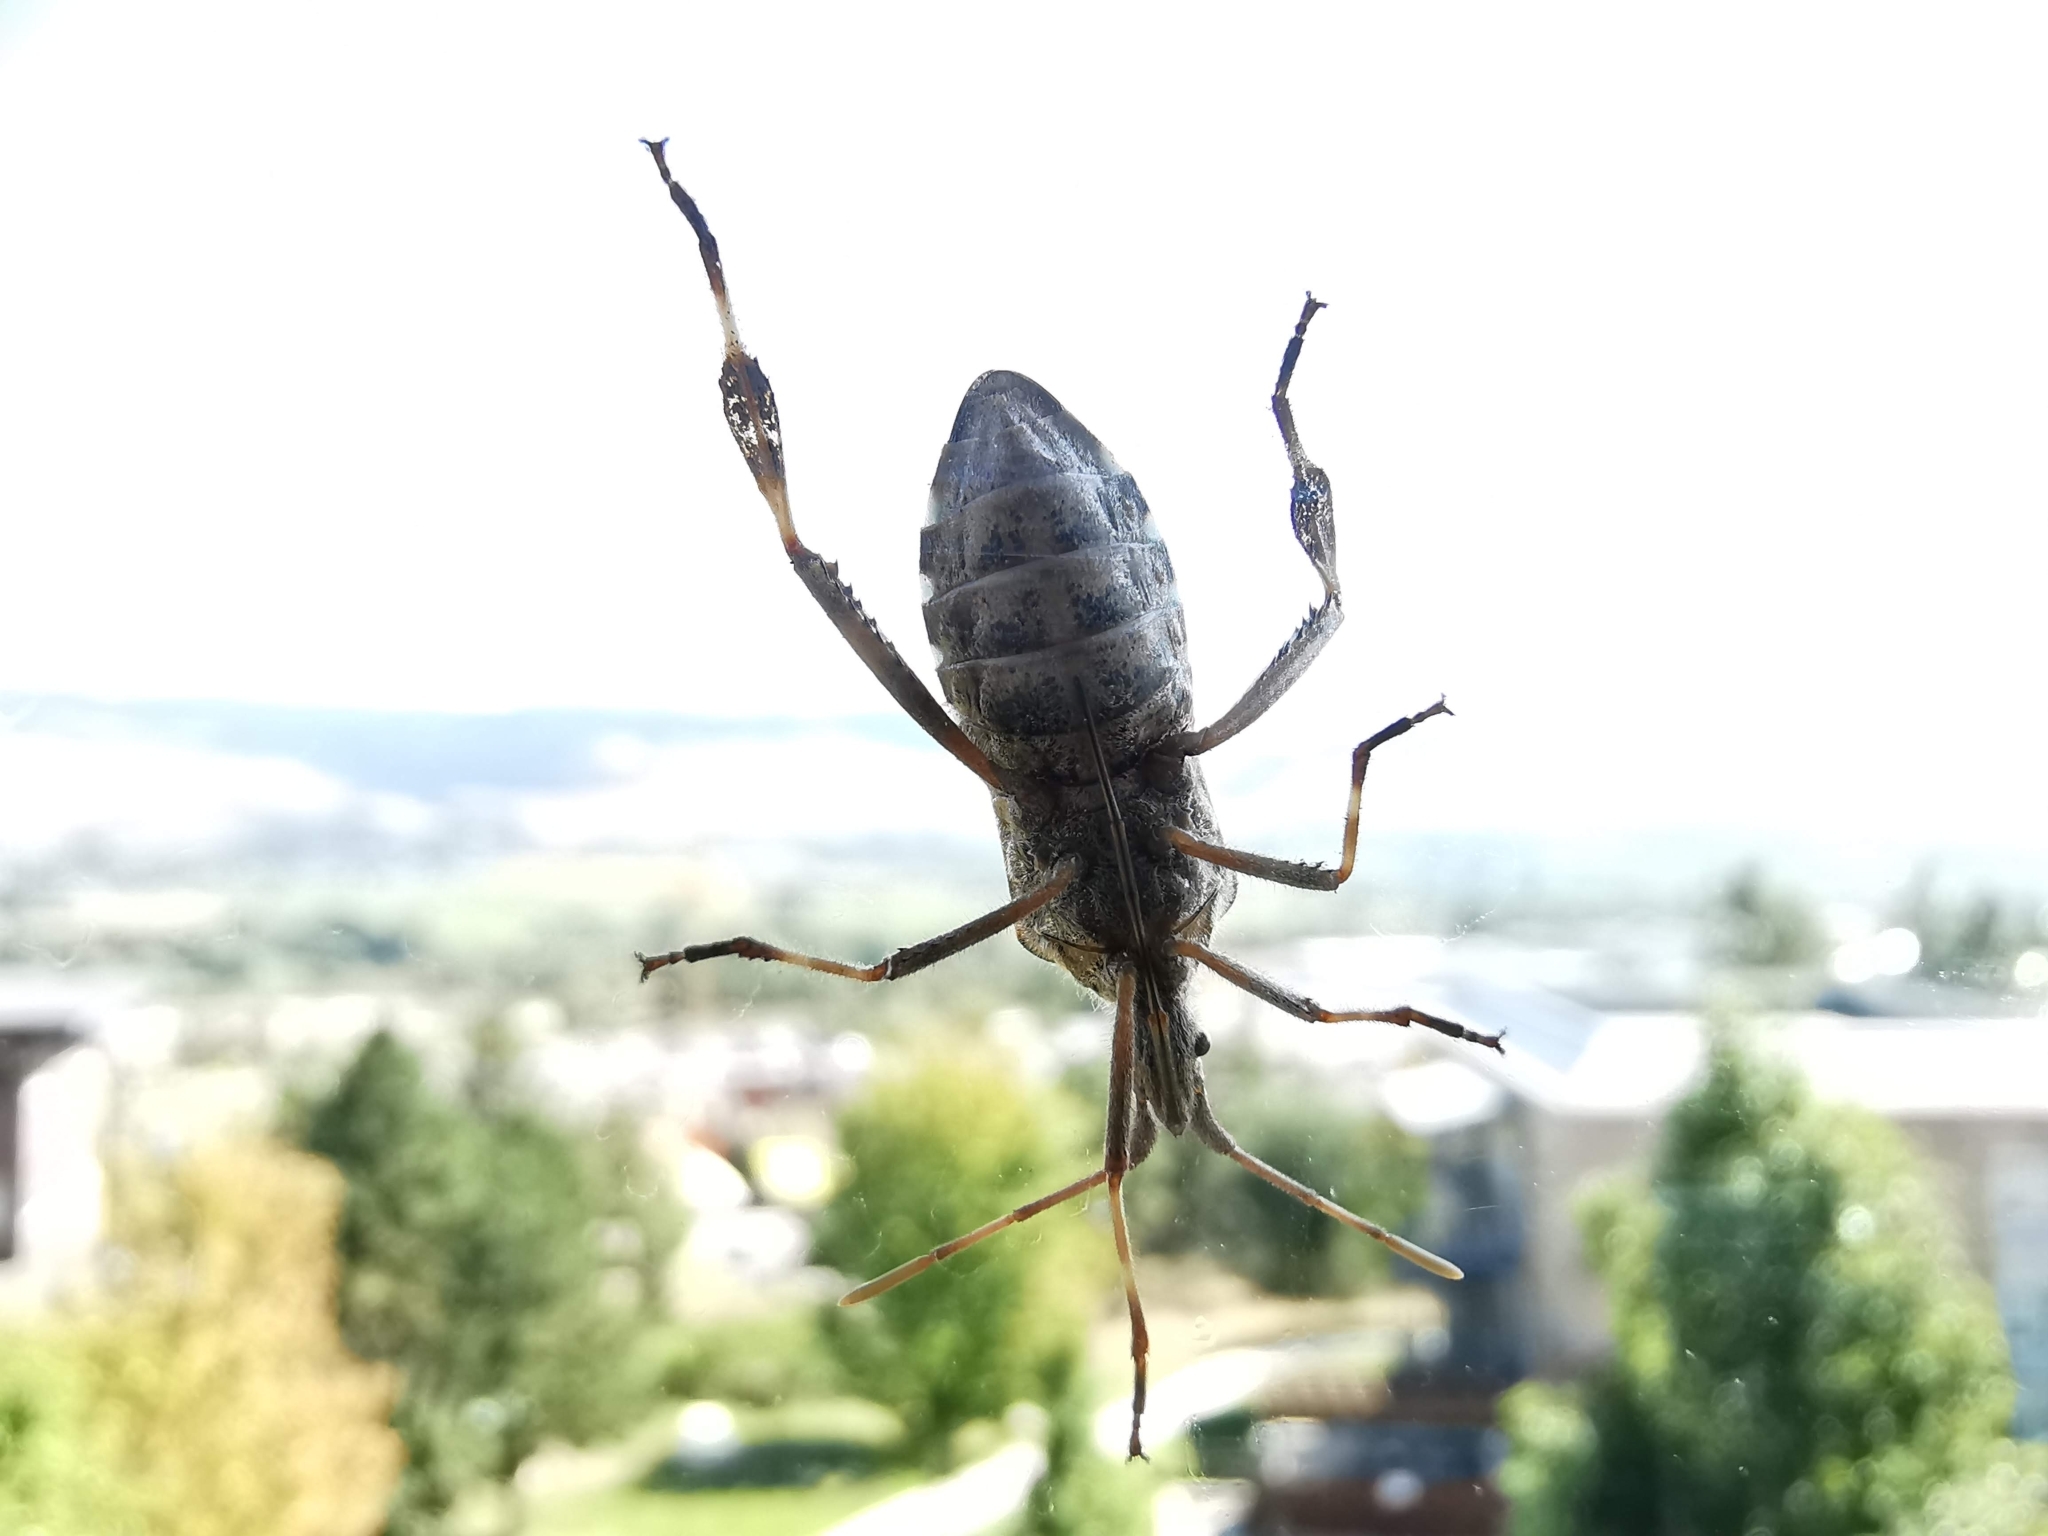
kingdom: Animalia
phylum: Arthropoda
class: Insecta
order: Hemiptera
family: Coreidae
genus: Leptoglossus
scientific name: Leptoglossus occidentalis
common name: Western conifer-seed bug
